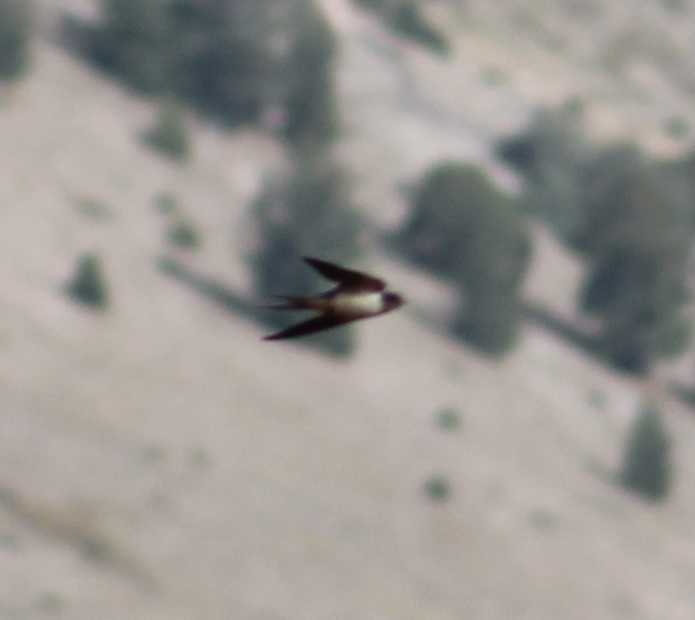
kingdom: Animalia
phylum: Chordata
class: Aves
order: Passeriformes
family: Hirundinidae
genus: Hirundo
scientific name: Hirundo rustica
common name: Barn swallow
